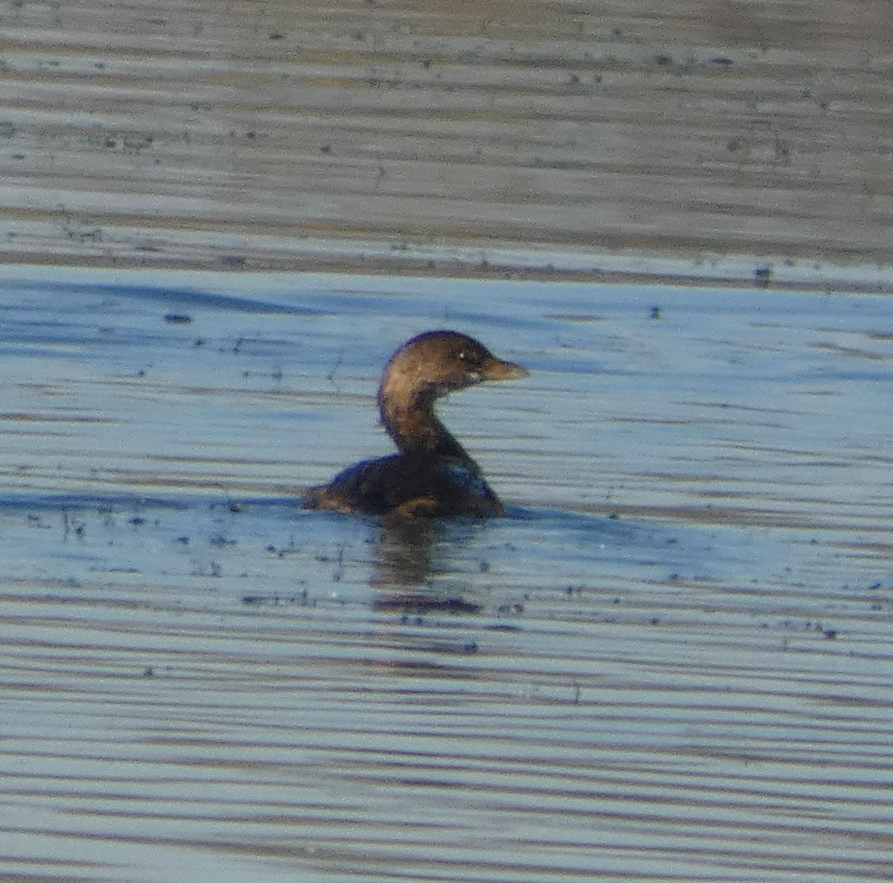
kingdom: Animalia
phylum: Chordata
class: Aves
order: Podicipediformes
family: Podicipedidae
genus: Podilymbus
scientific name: Podilymbus podiceps
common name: Pied-billed grebe
